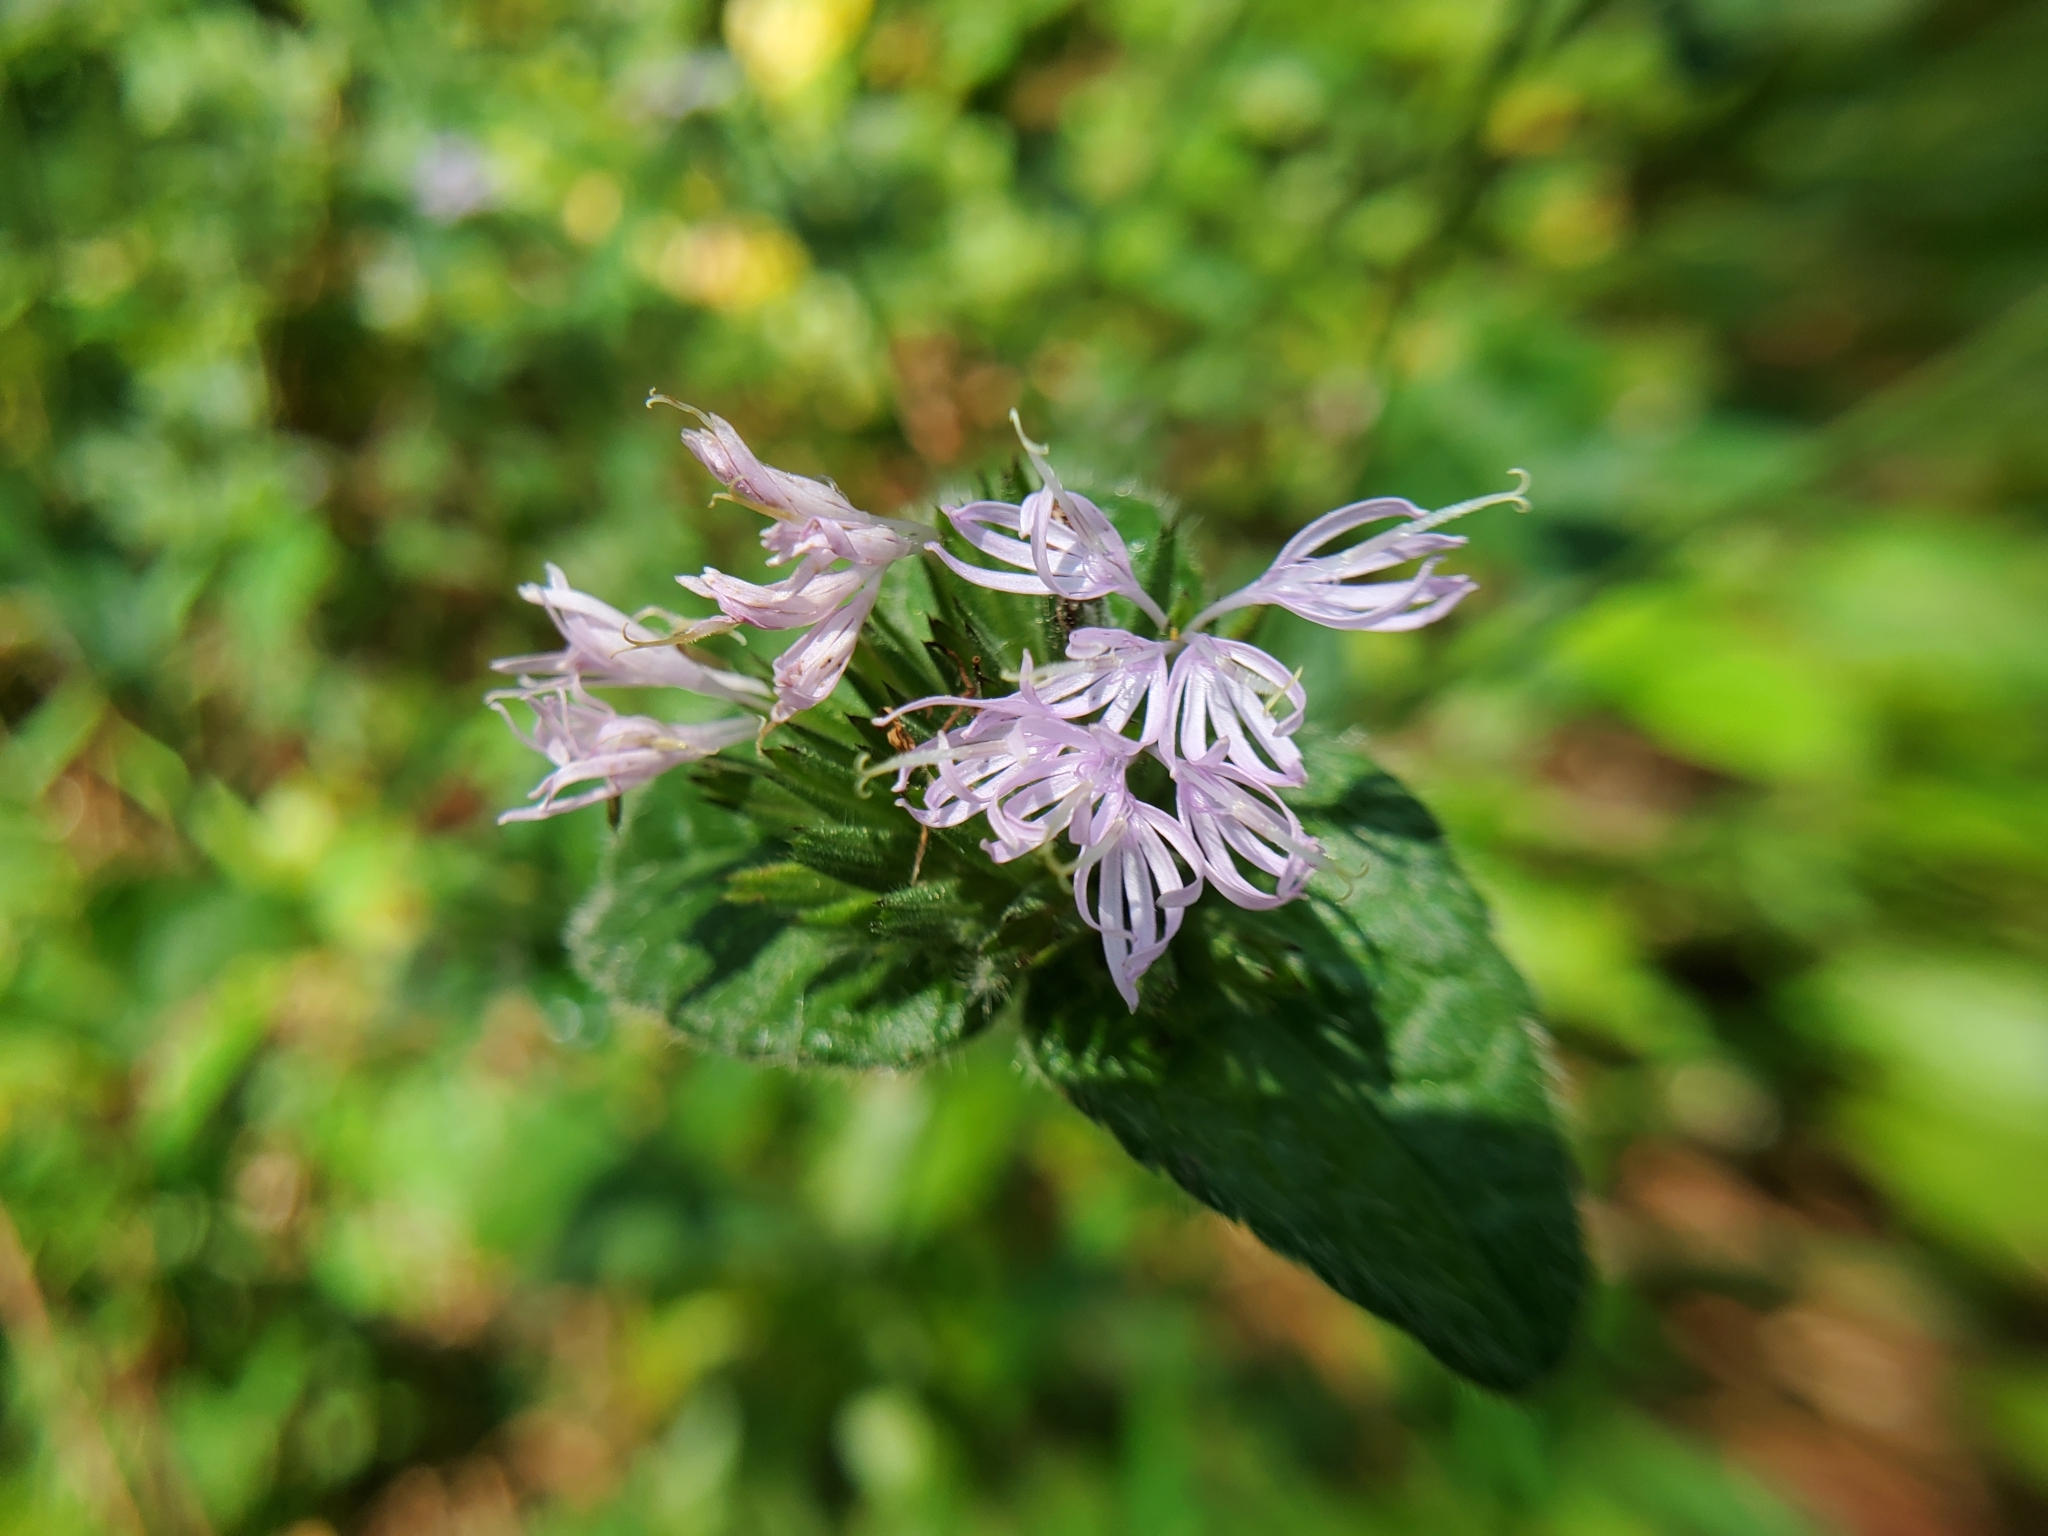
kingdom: Plantae
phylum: Tracheophyta
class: Magnoliopsida
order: Asterales
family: Asteraceae
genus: Elephantopus
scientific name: Elephantopus tomentosus
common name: Tobacco-weed
